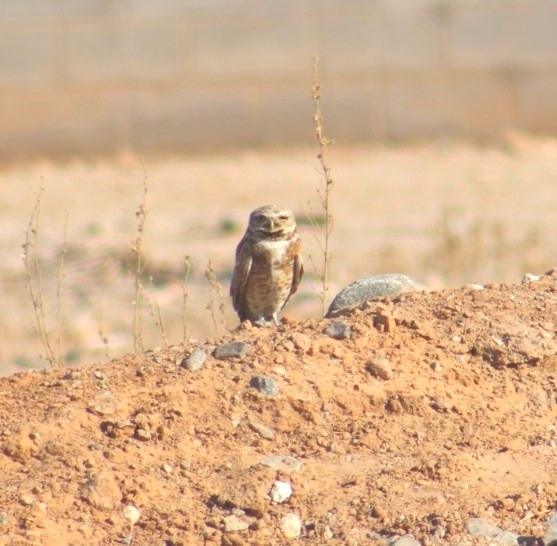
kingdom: Animalia
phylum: Chordata
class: Aves
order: Strigiformes
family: Strigidae
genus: Athene
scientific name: Athene cunicularia
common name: Burrowing owl
